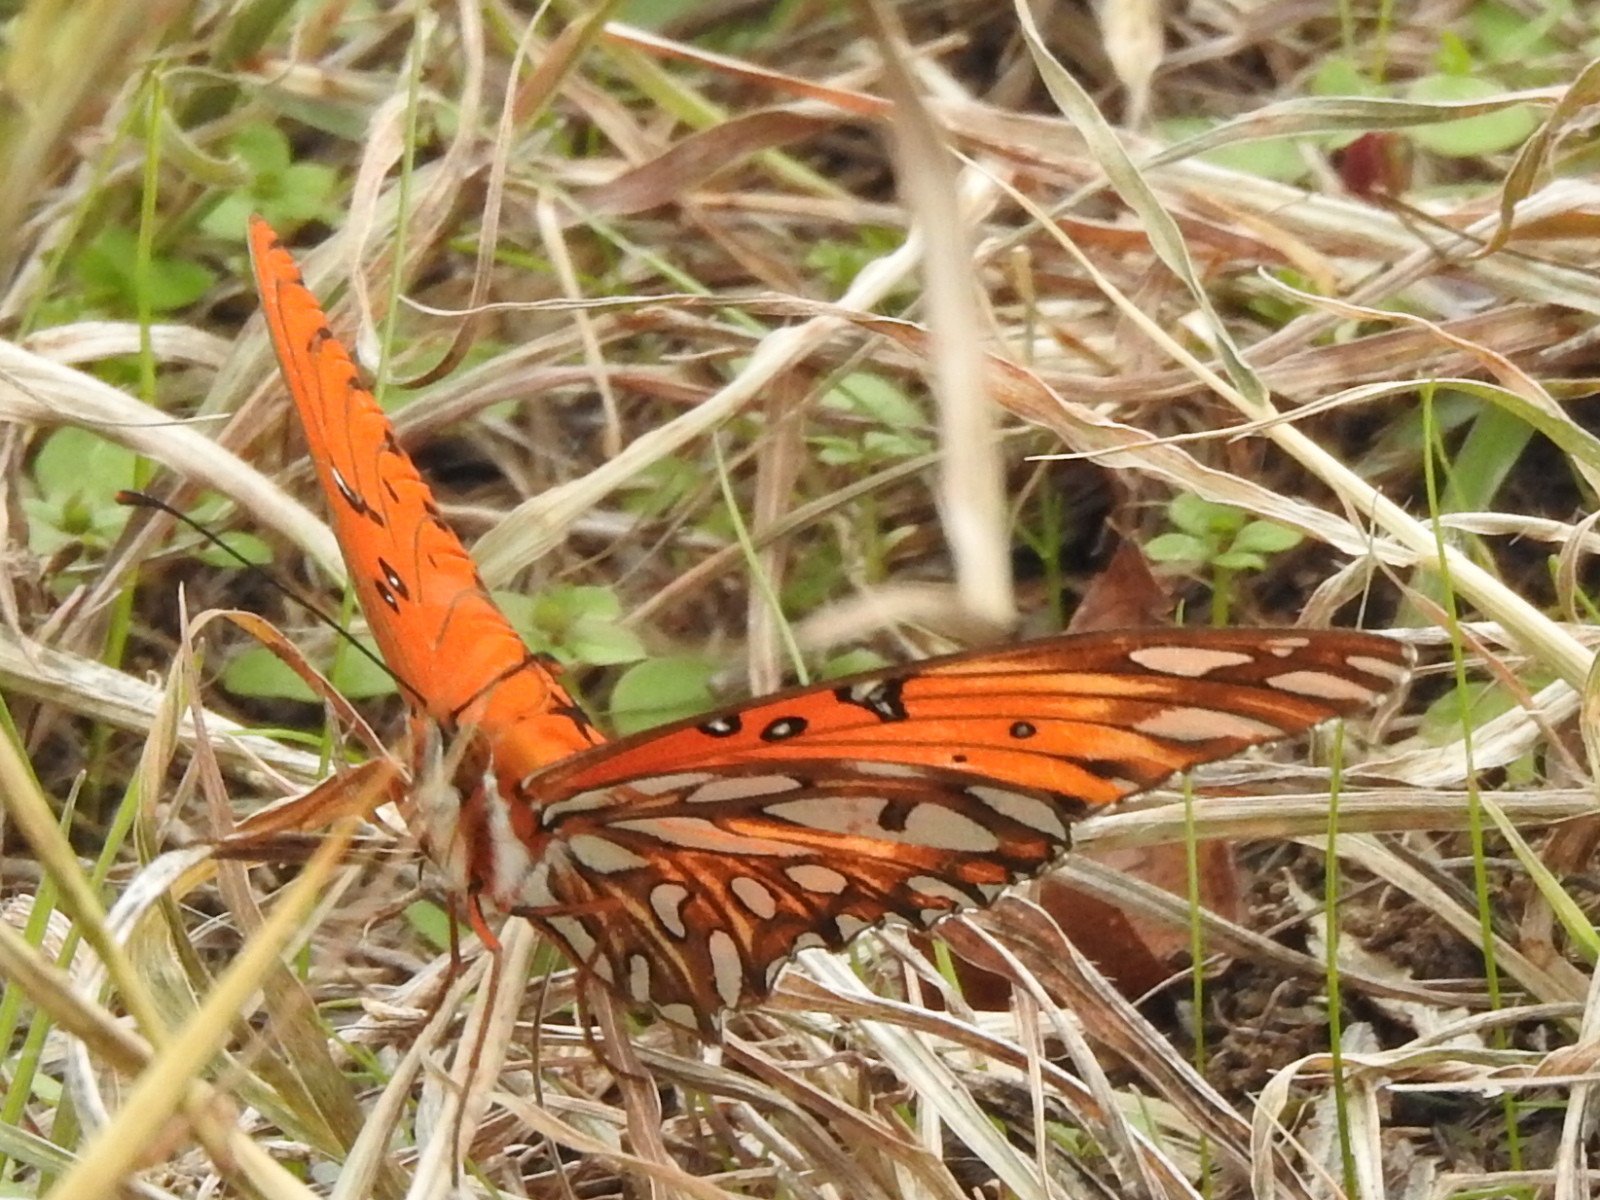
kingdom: Animalia
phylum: Arthropoda
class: Insecta
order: Lepidoptera
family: Nymphalidae
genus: Dione
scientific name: Dione vanillae
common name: Gulf fritillary
